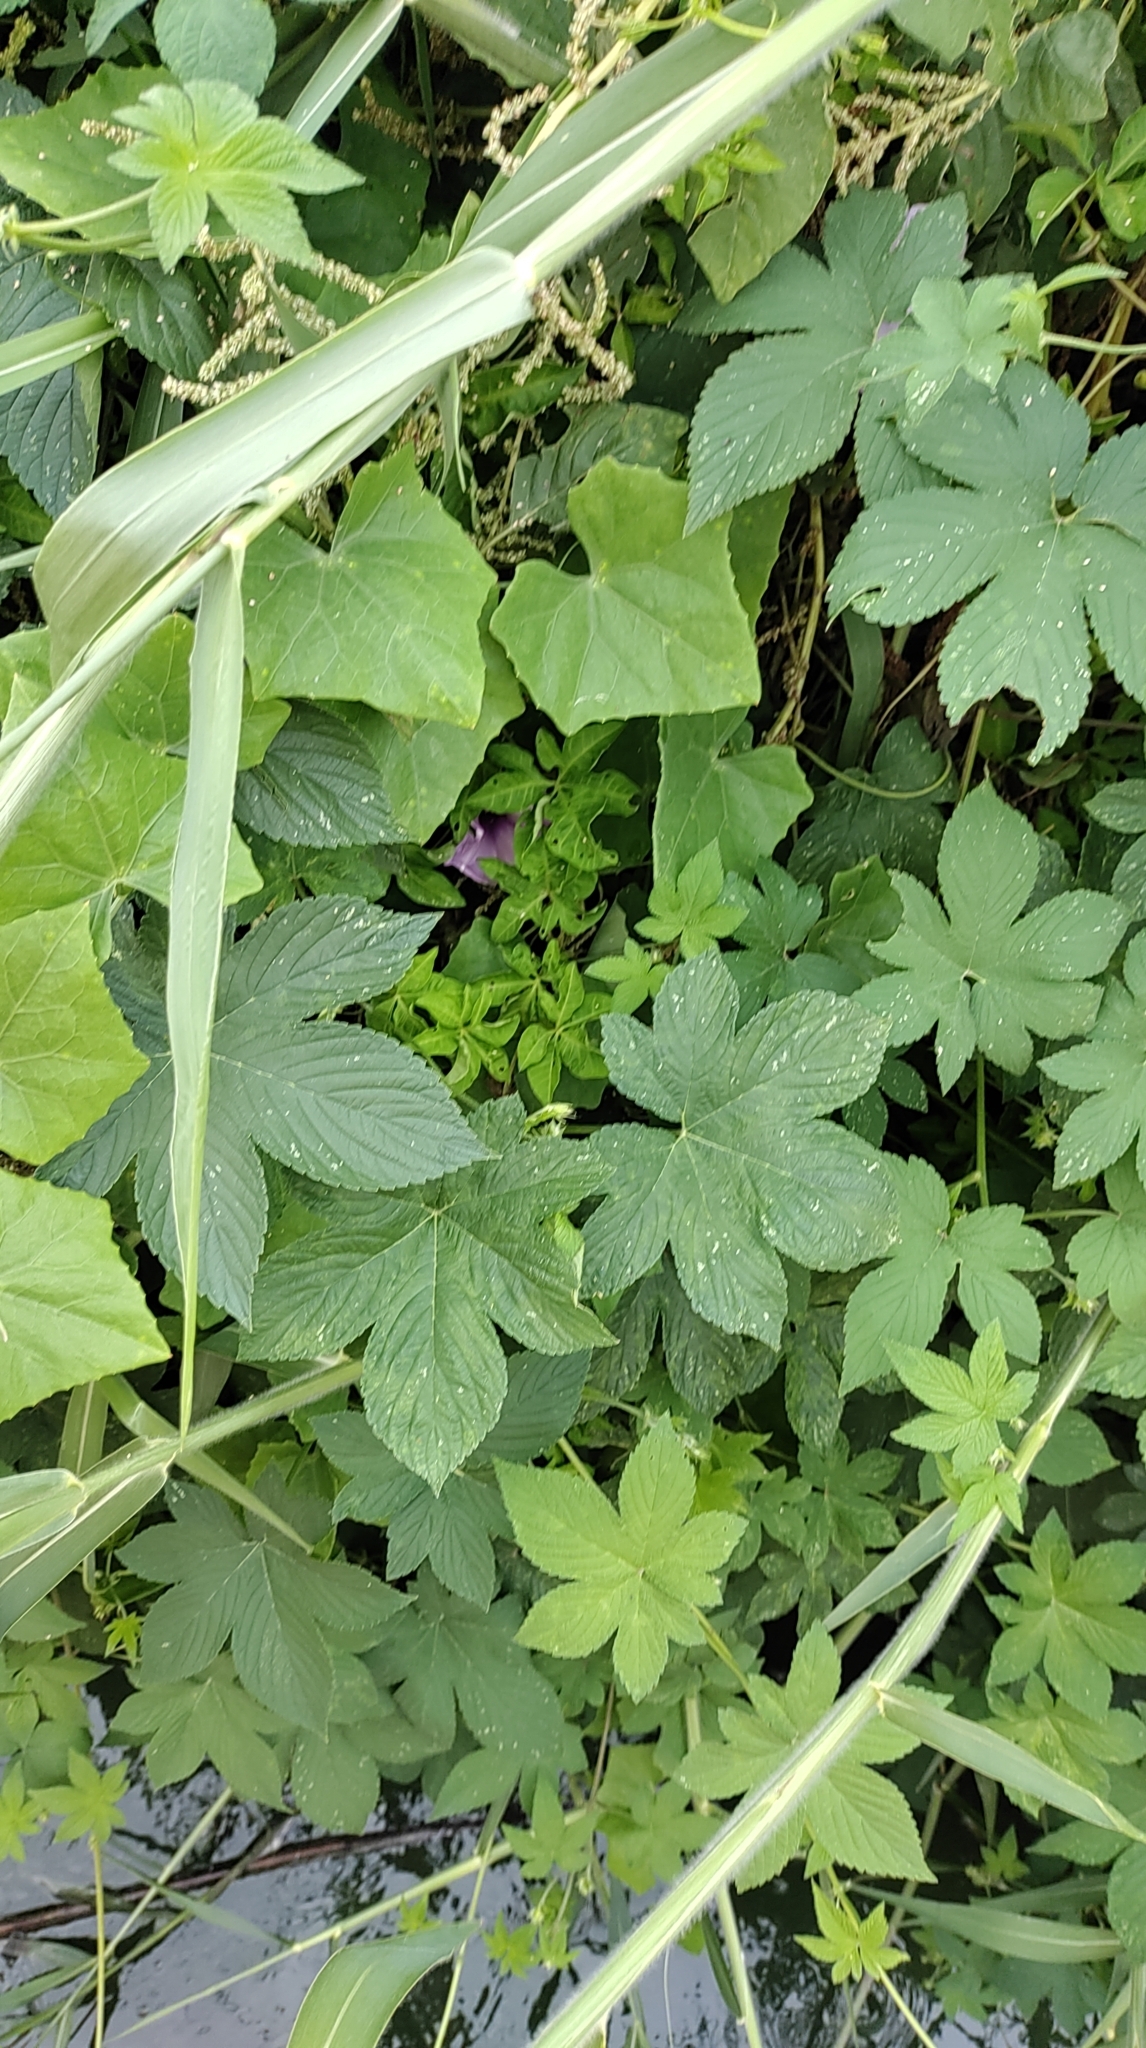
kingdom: Plantae
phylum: Tracheophyta
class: Magnoliopsida
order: Rosales
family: Cannabaceae
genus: Humulus
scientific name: Humulus scandens
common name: Japanese hop
